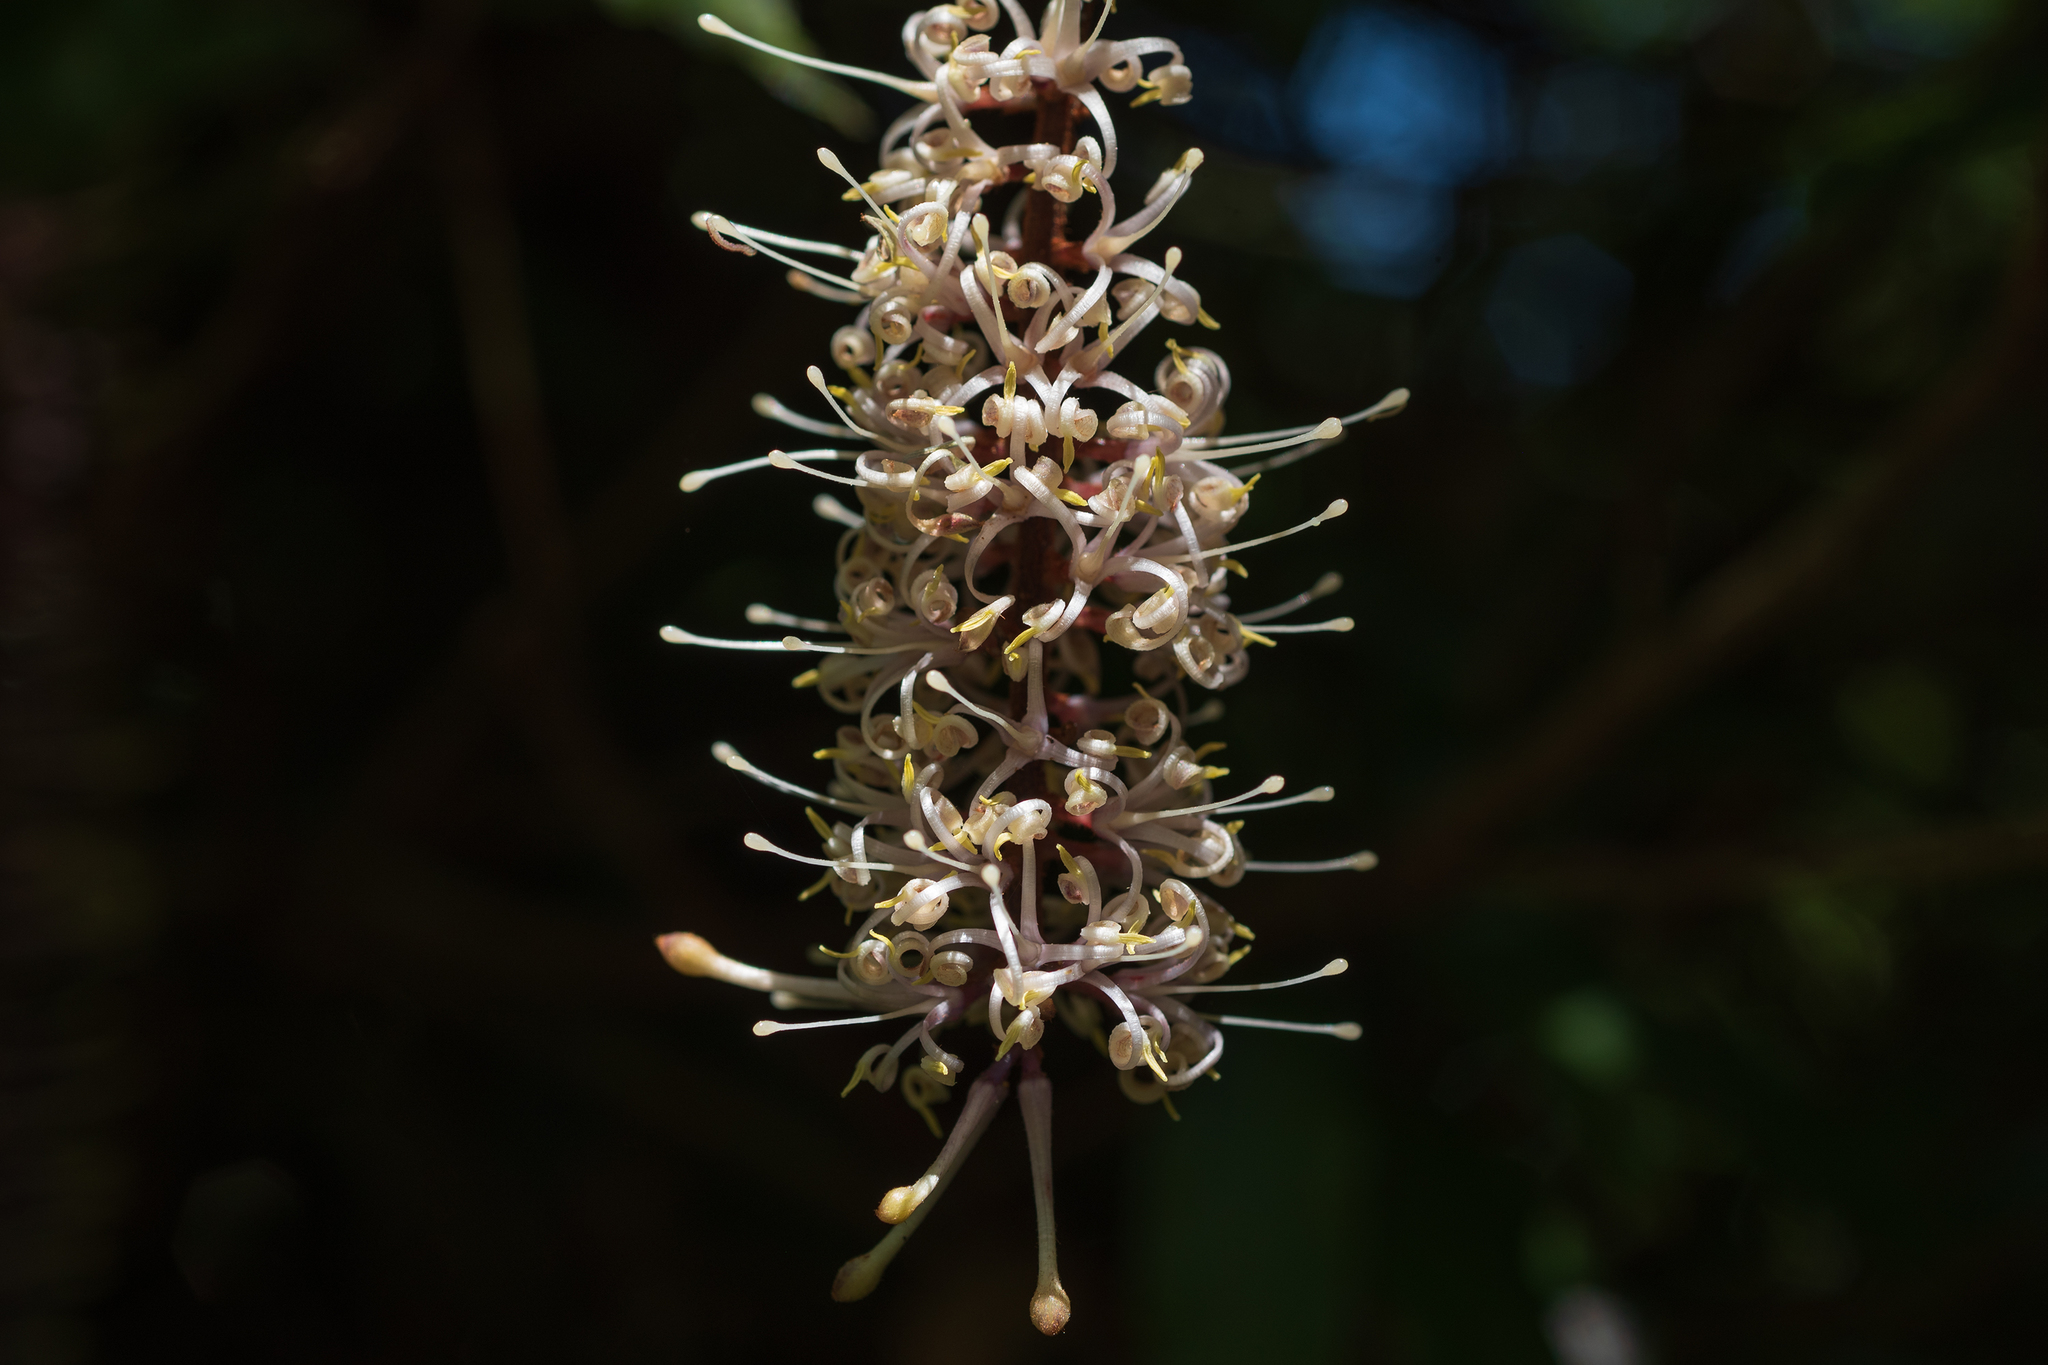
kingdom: Plantae
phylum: Tracheophyta
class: Magnoliopsida
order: Proteales
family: Proteaceae
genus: Helicia
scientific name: Helicia formosana
